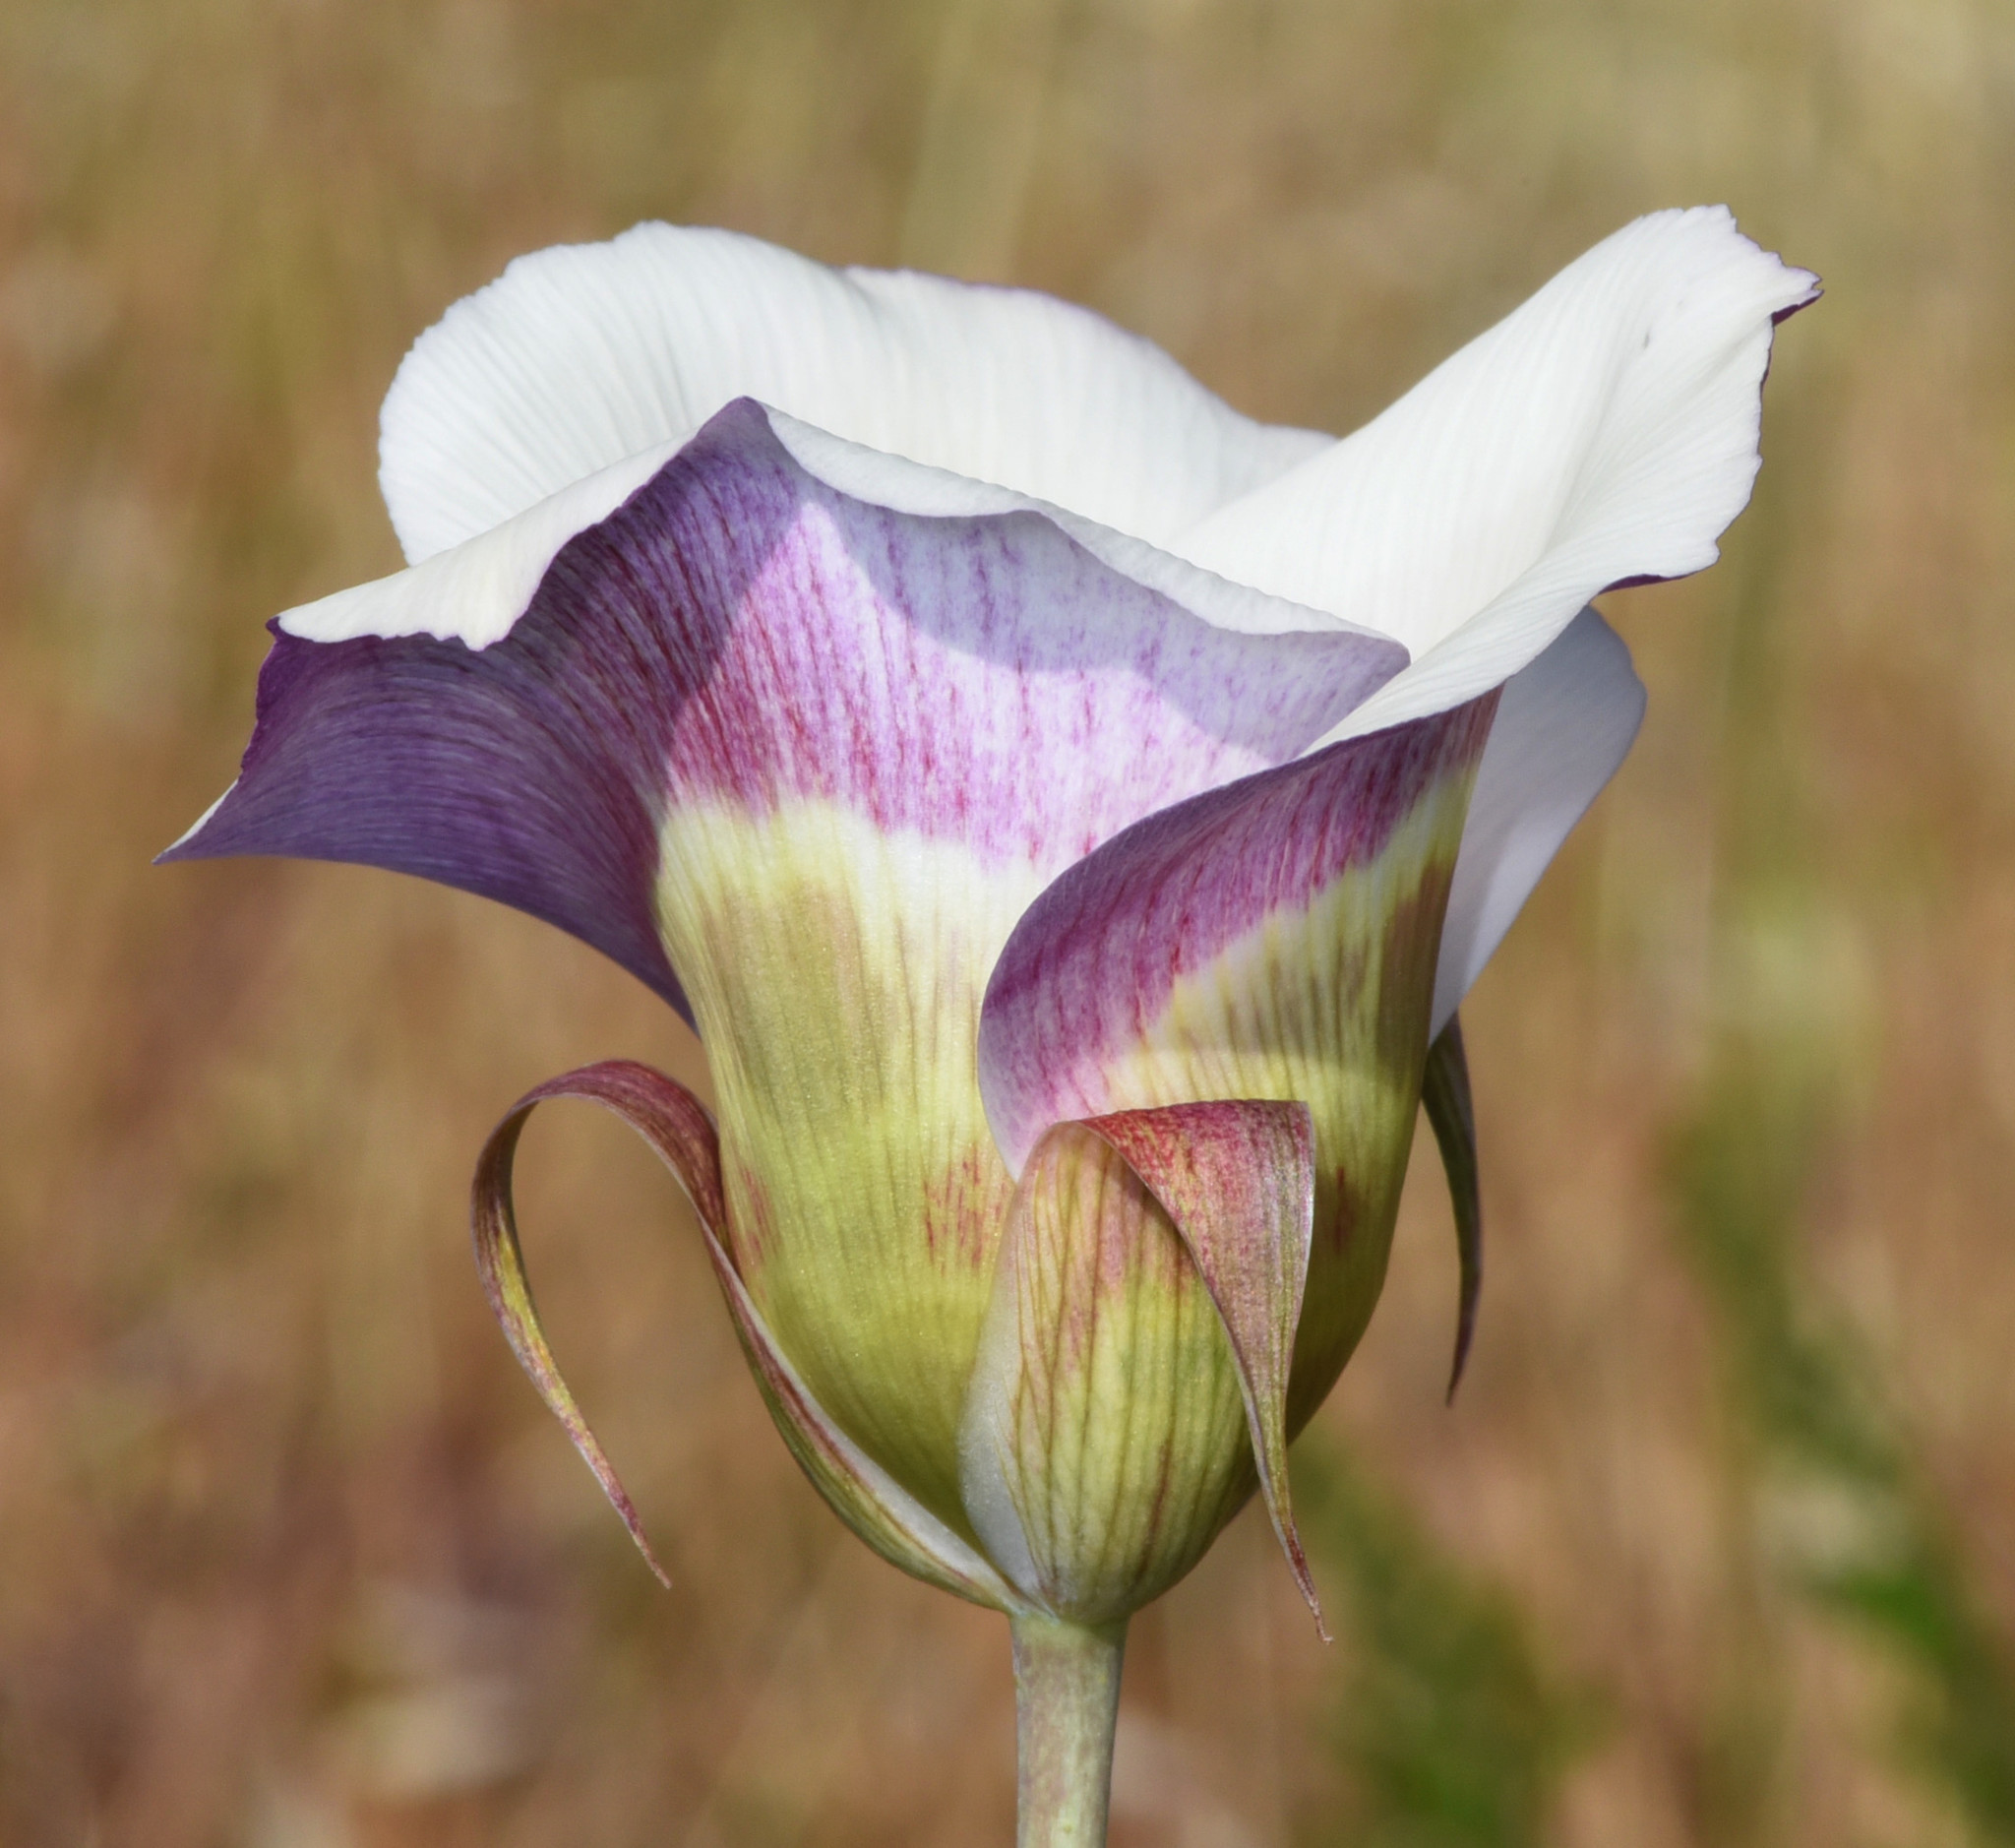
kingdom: Plantae
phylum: Tracheophyta
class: Liliopsida
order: Liliales
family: Liliaceae
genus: Calochortus
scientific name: Calochortus vestae
